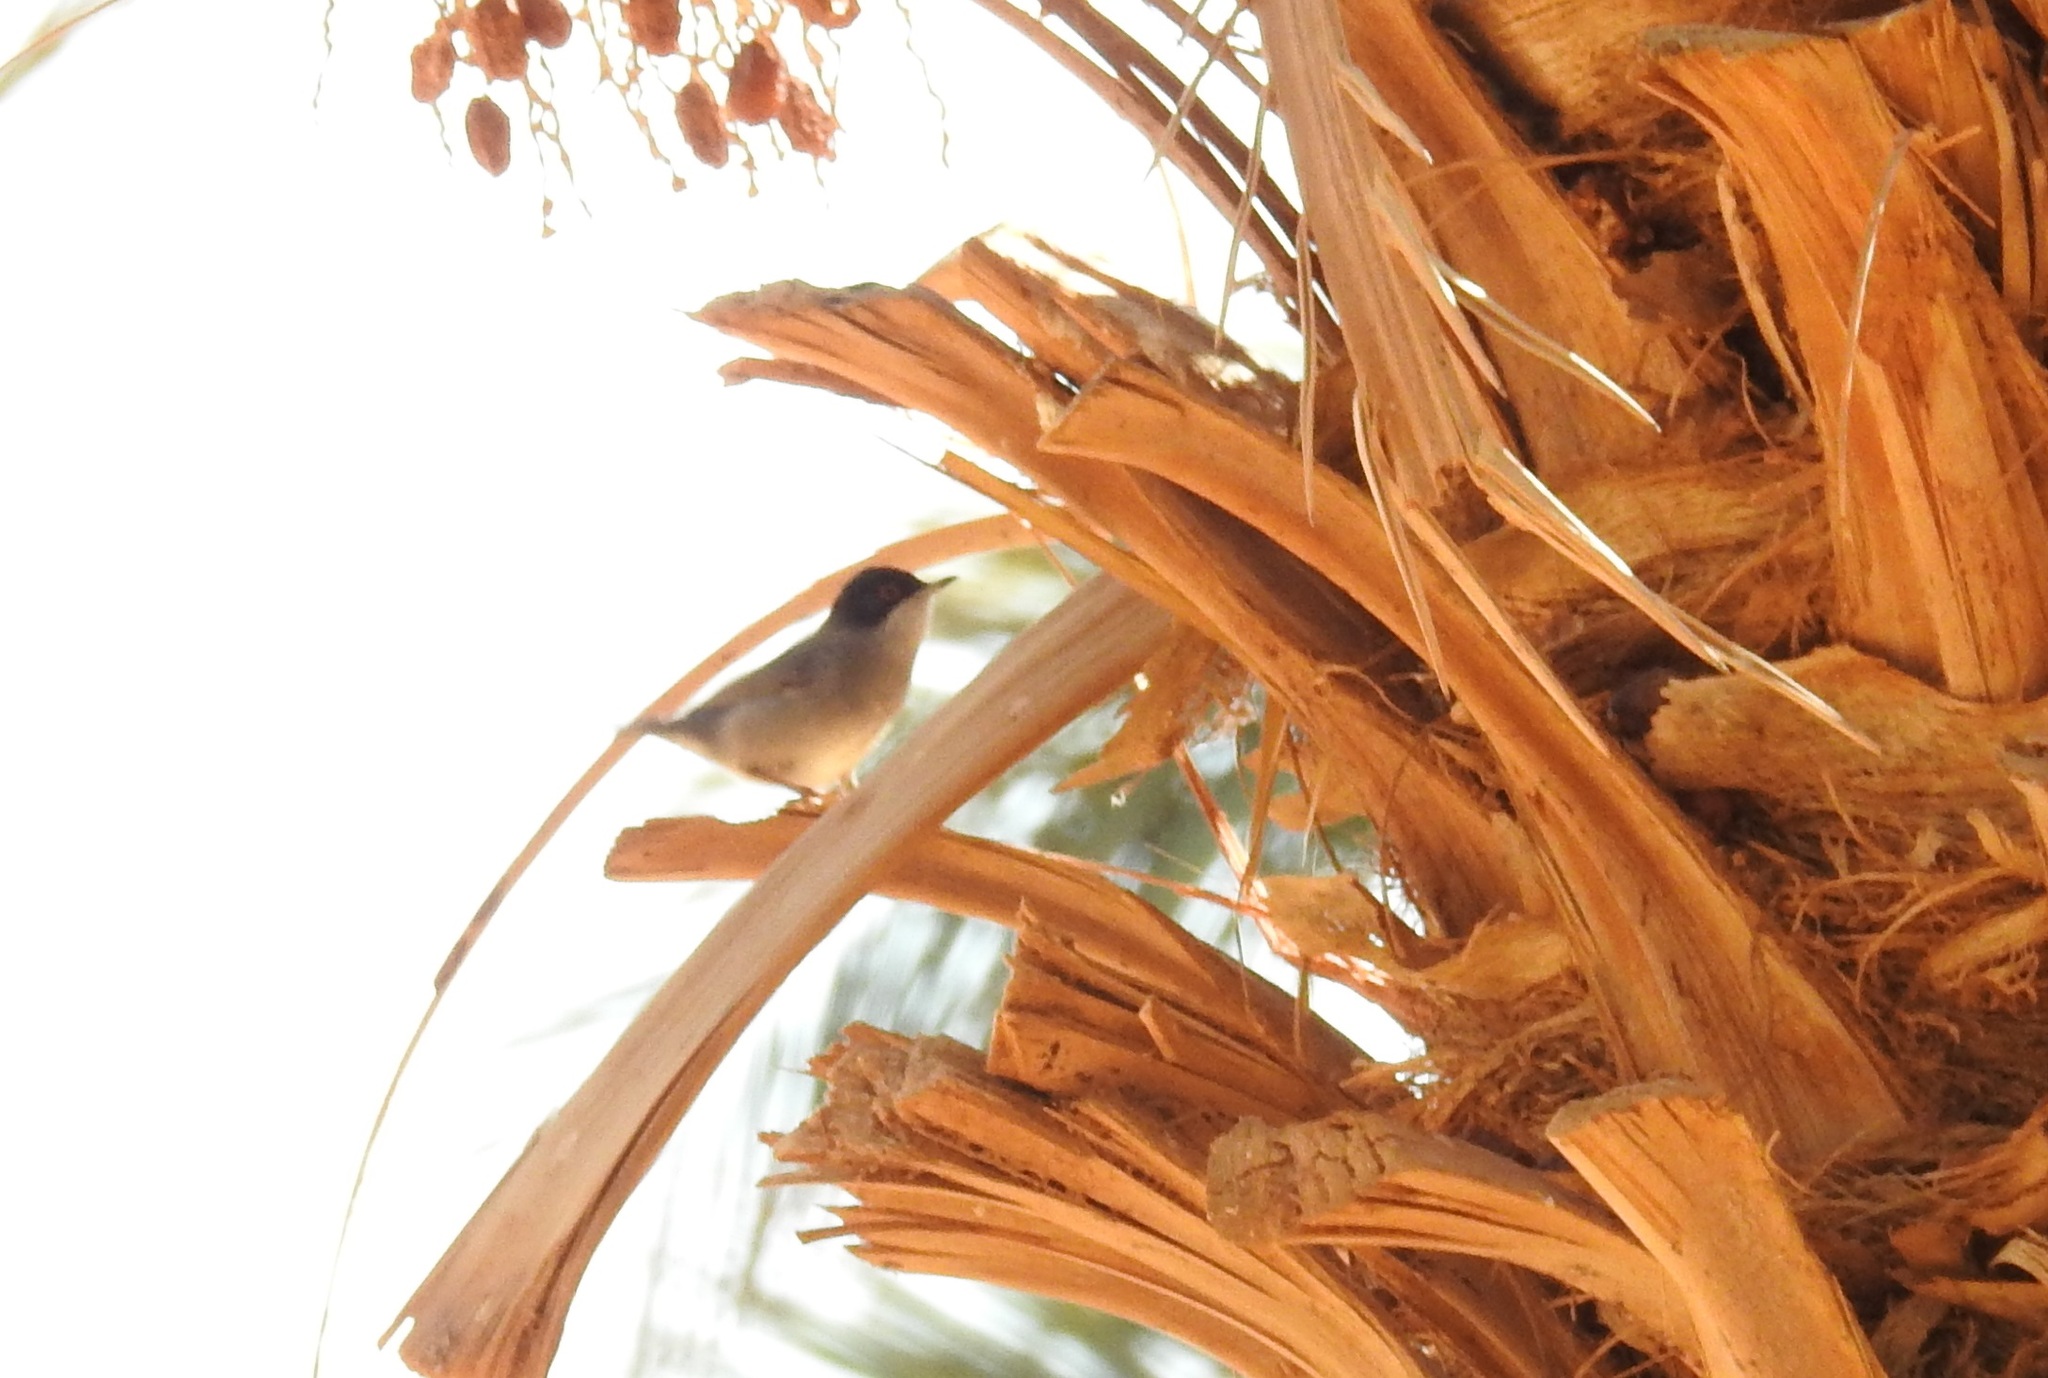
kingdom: Animalia
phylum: Chordata
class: Aves
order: Passeriformes
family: Sylviidae
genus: Curruca
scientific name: Curruca melanocephala
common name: Sardinian warbler
